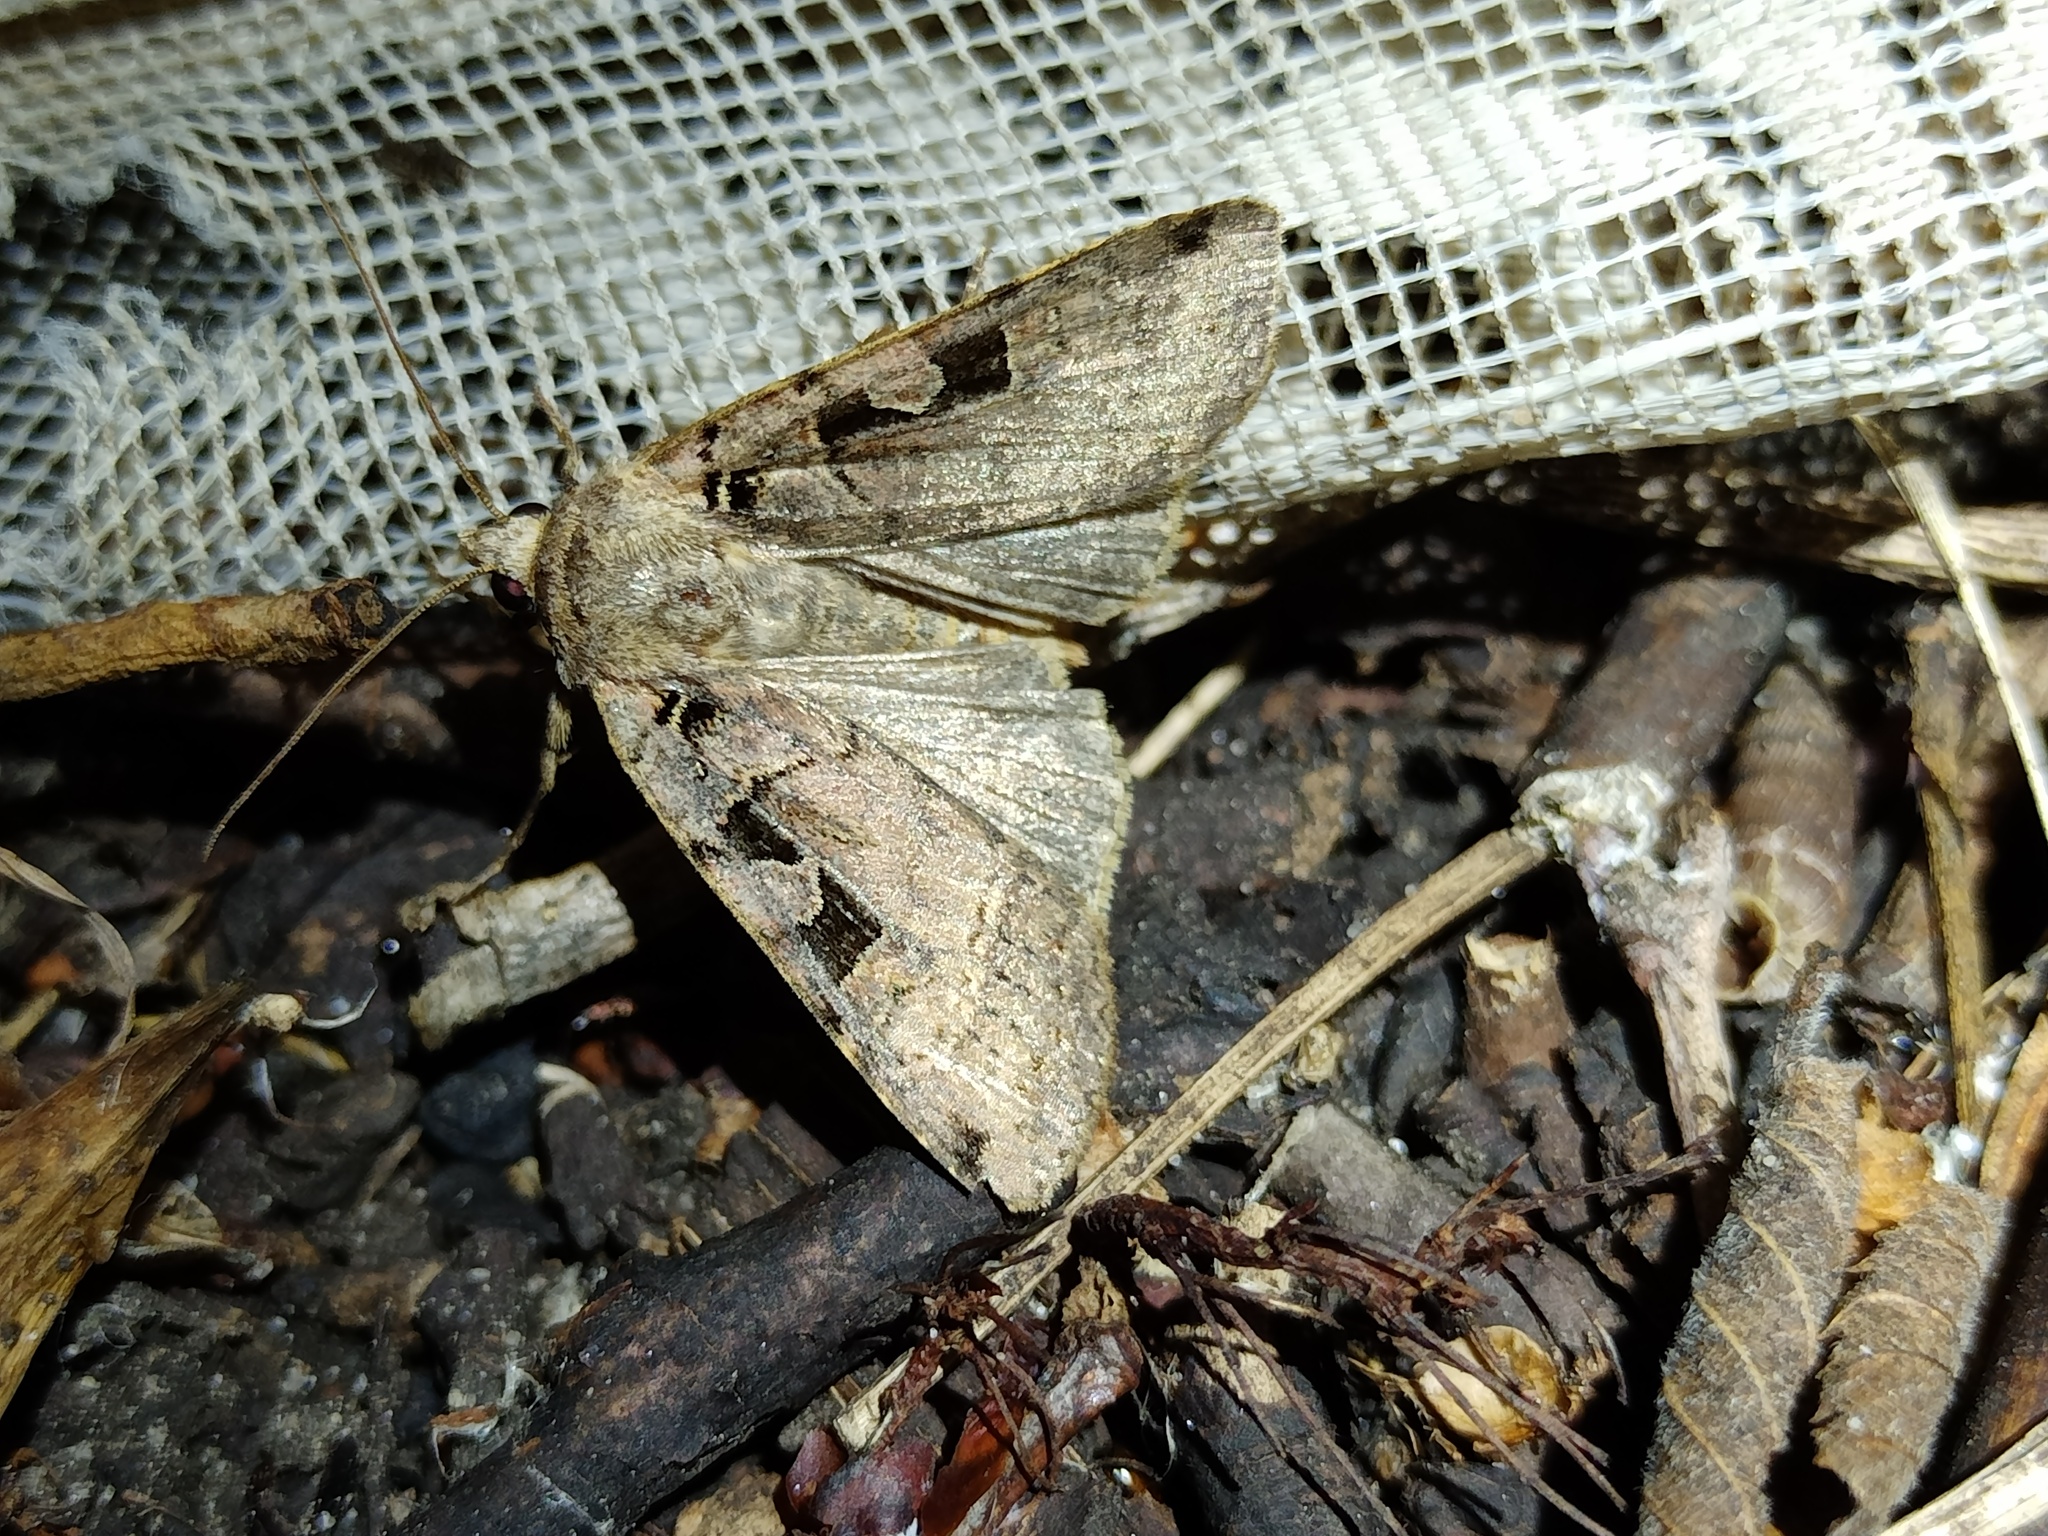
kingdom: Animalia
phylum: Arthropoda
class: Insecta
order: Lepidoptera
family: Noctuidae
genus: Xestia
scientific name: Xestia triangulum
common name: Double square-spot
